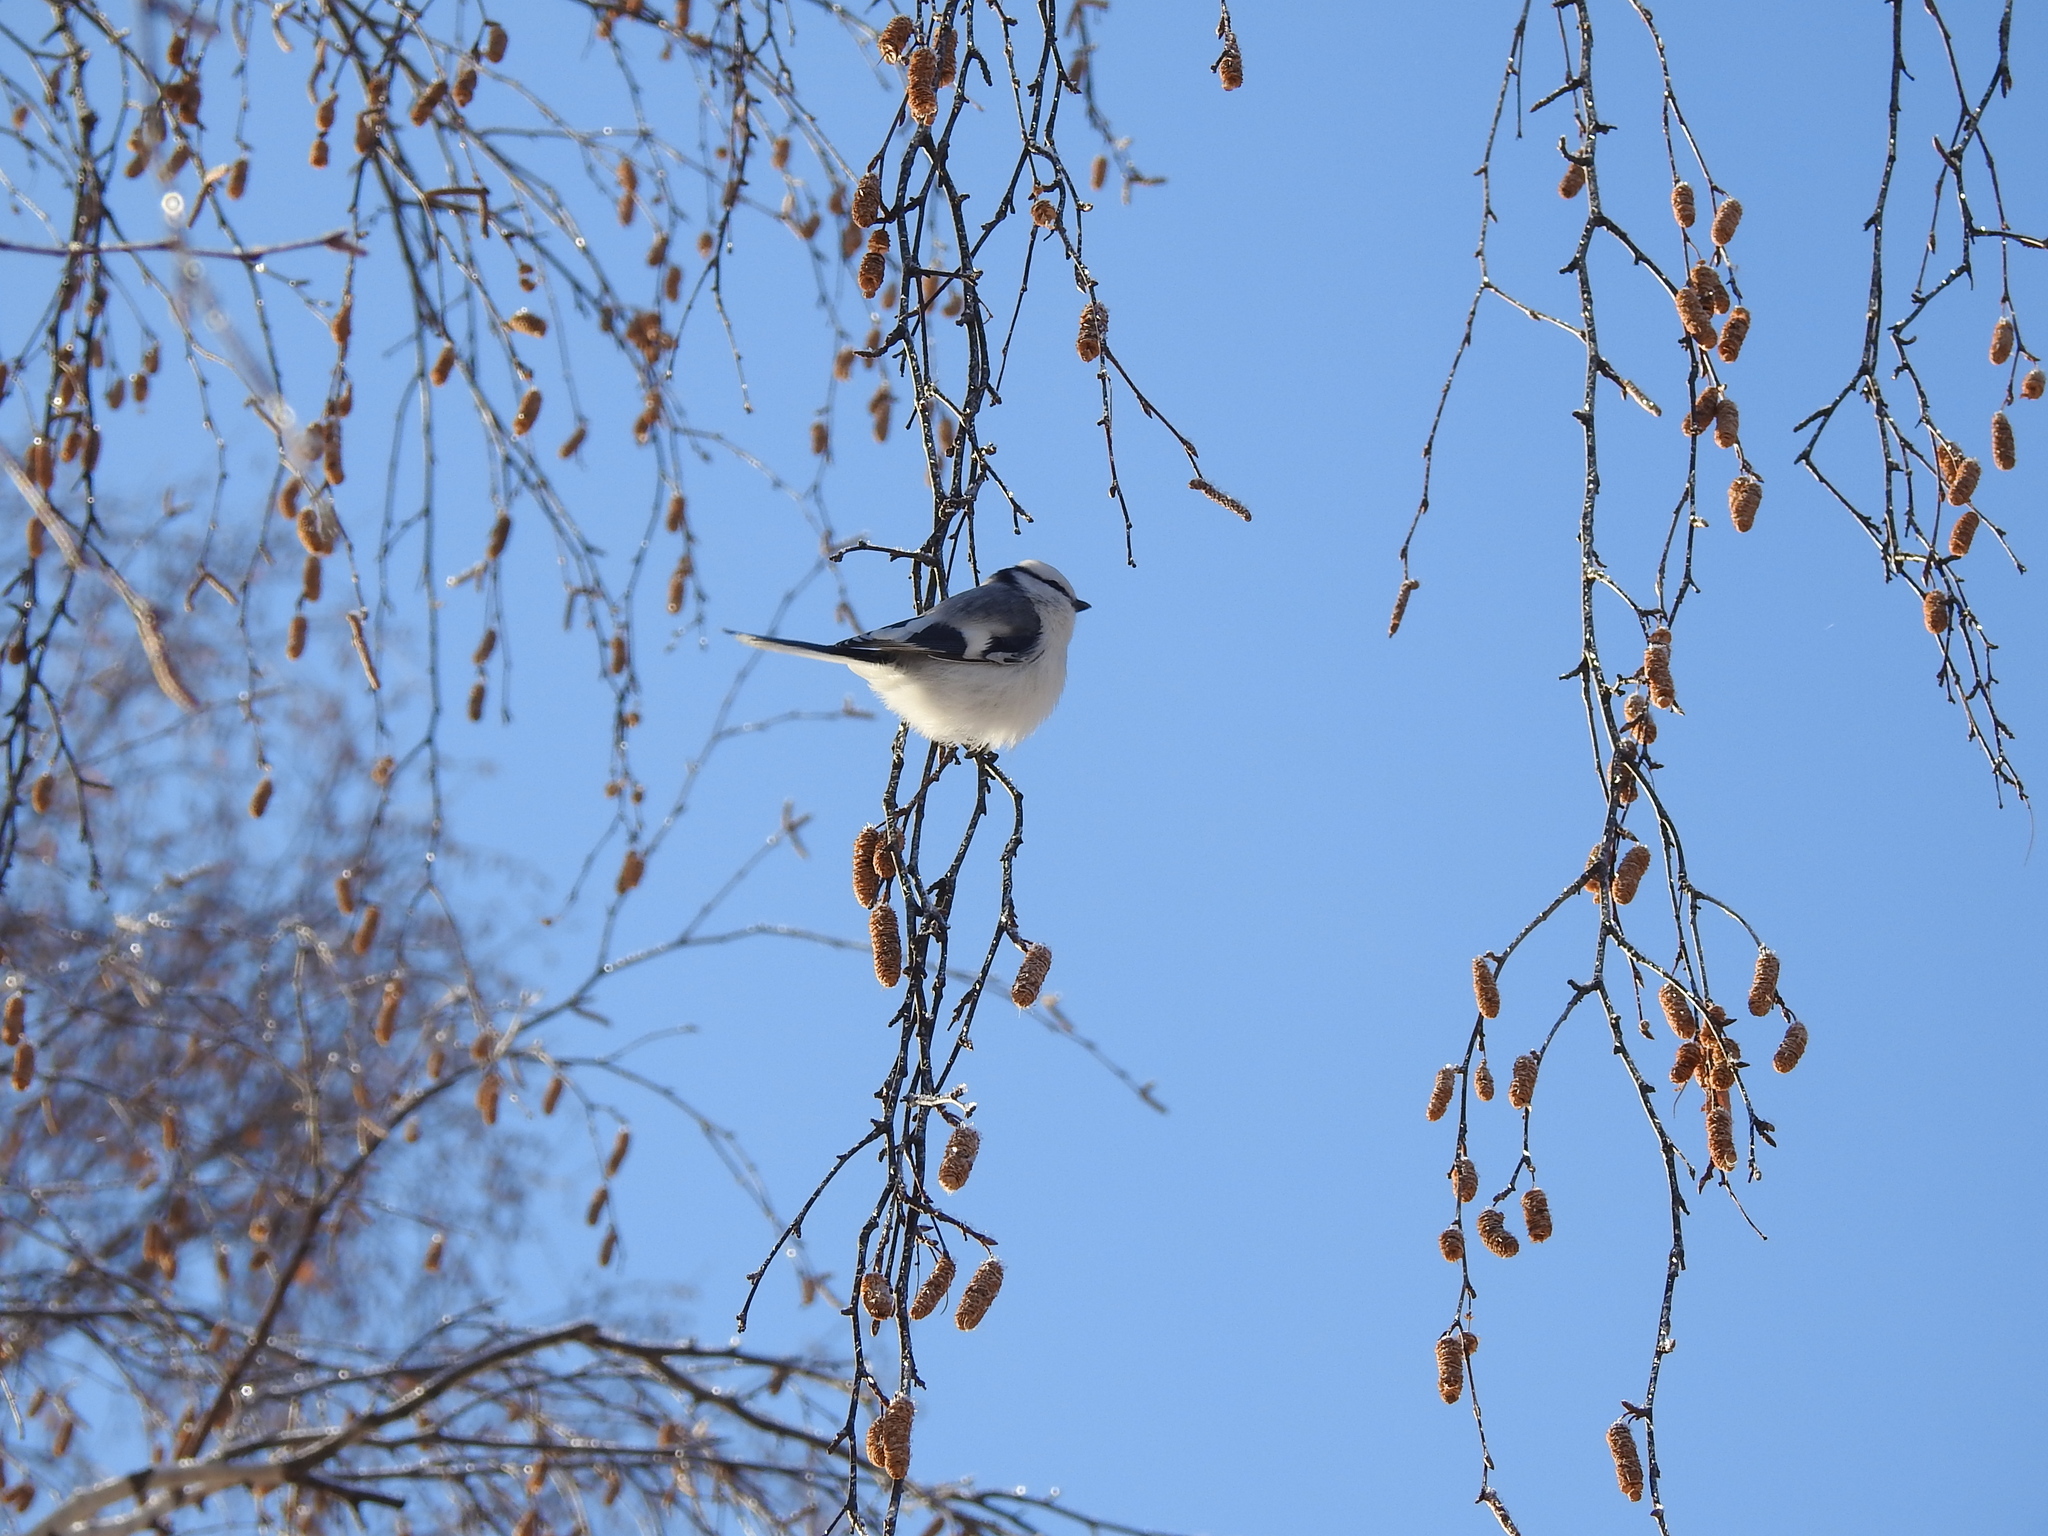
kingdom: Animalia
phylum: Chordata
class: Aves
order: Passeriformes
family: Paridae
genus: Cyanistes
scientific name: Cyanistes cyanus
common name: Azure tit
